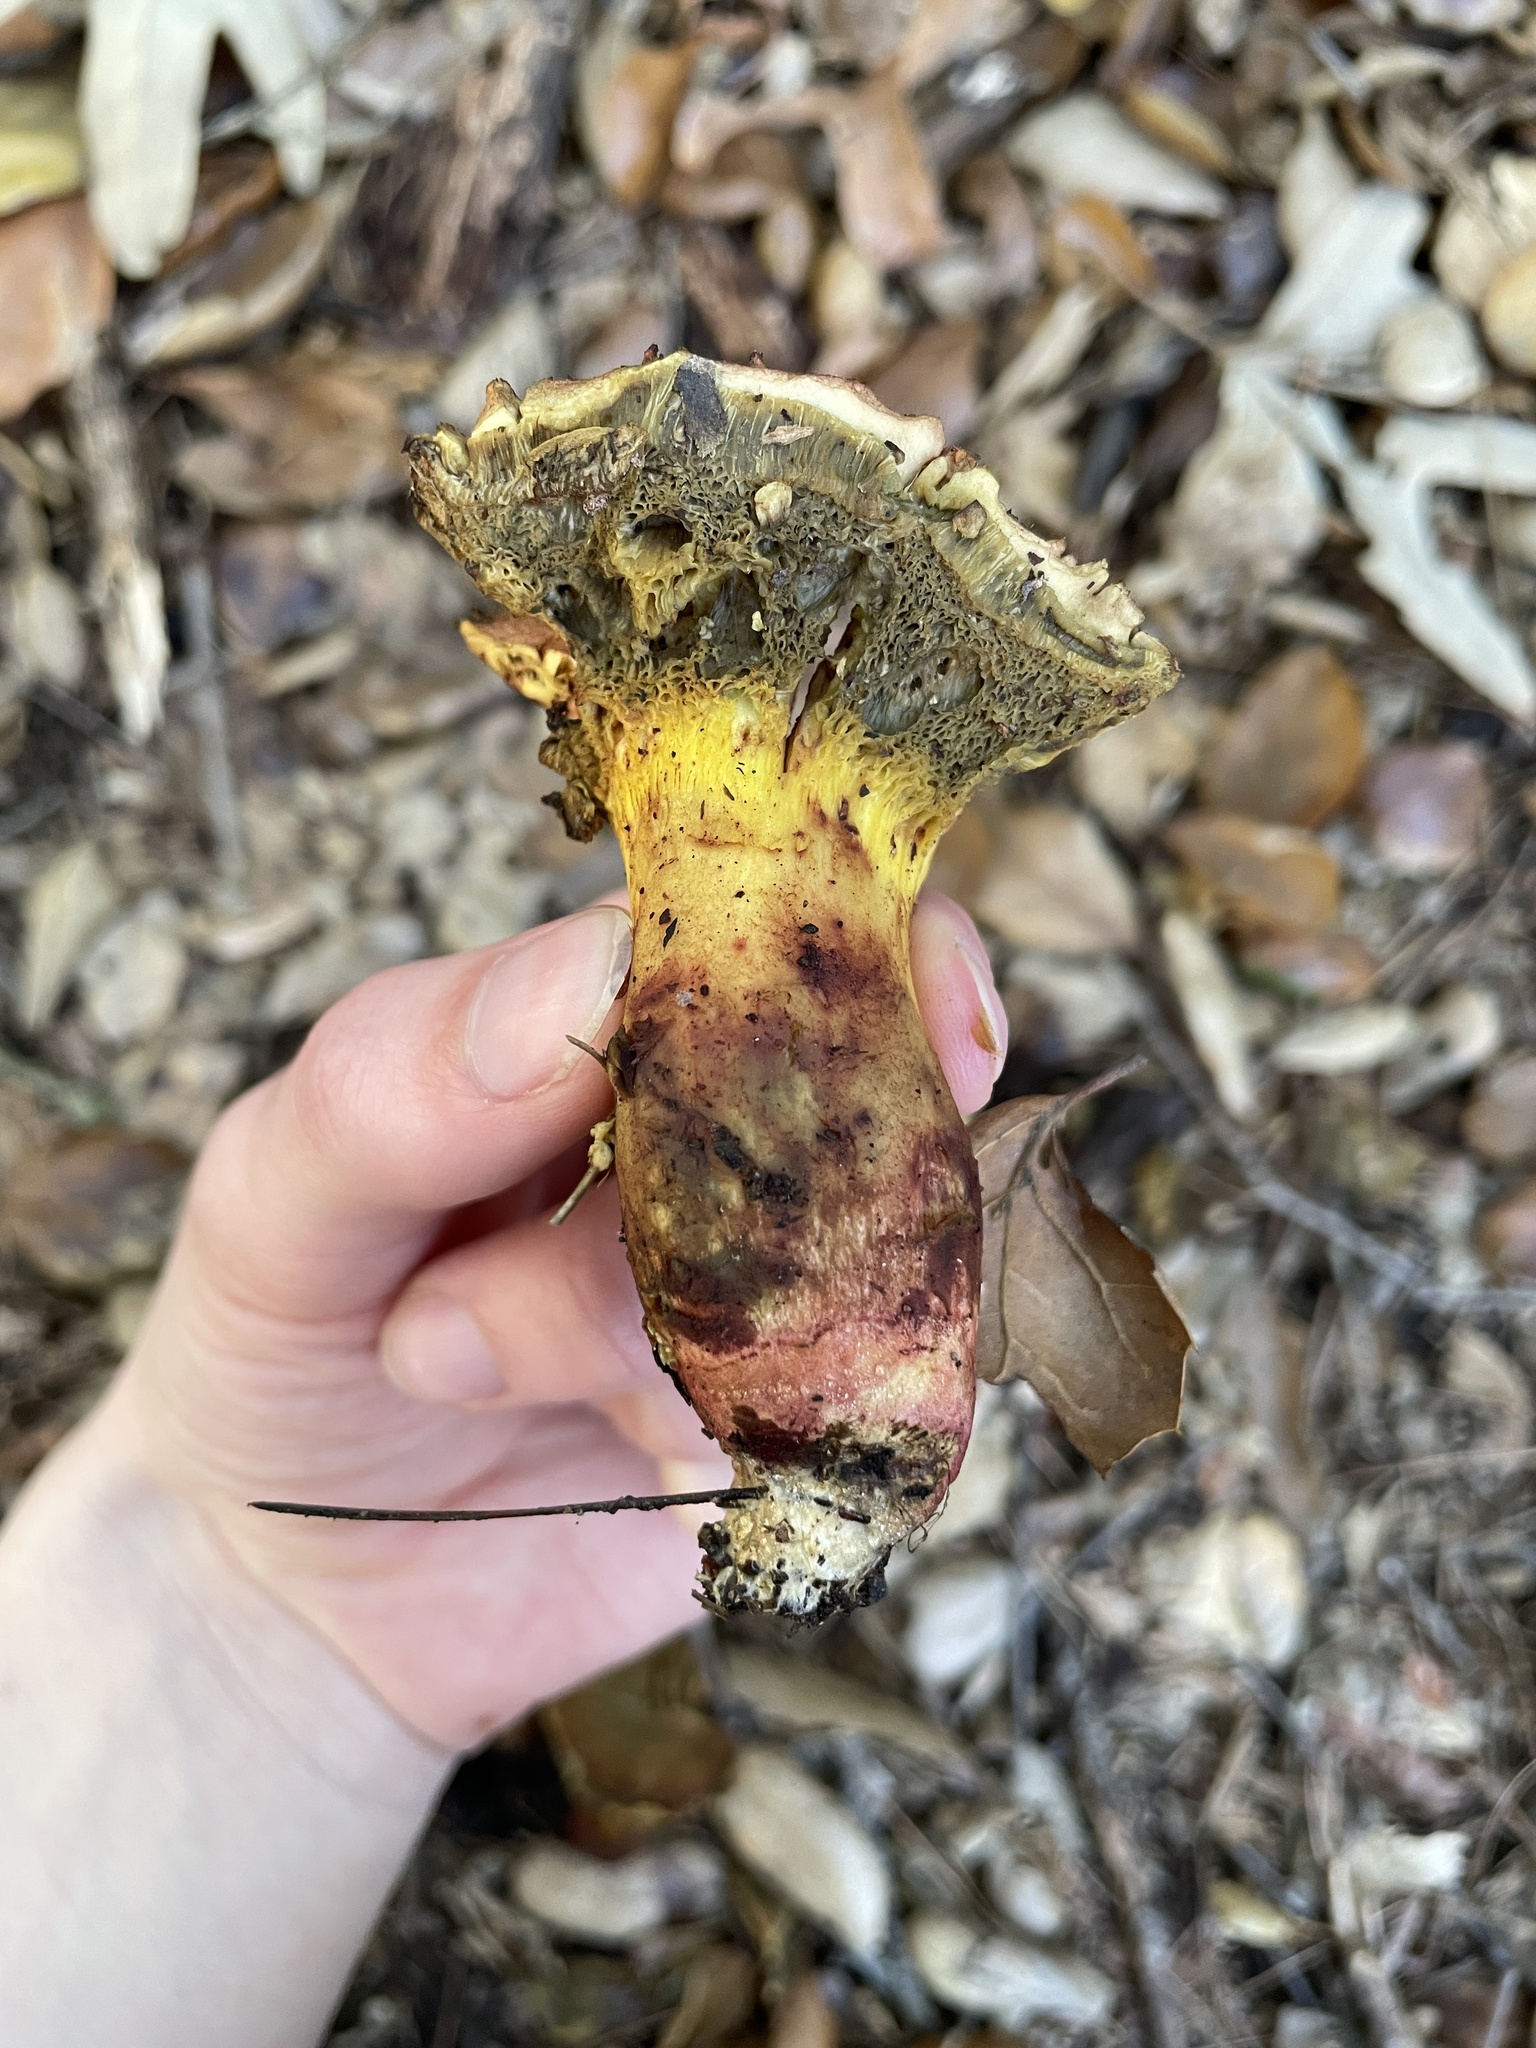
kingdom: Fungi
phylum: Basidiomycota
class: Agaricomycetes
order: Boletales
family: Boletaceae
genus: Xerocomellus
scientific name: Xerocomellus dryophilus
